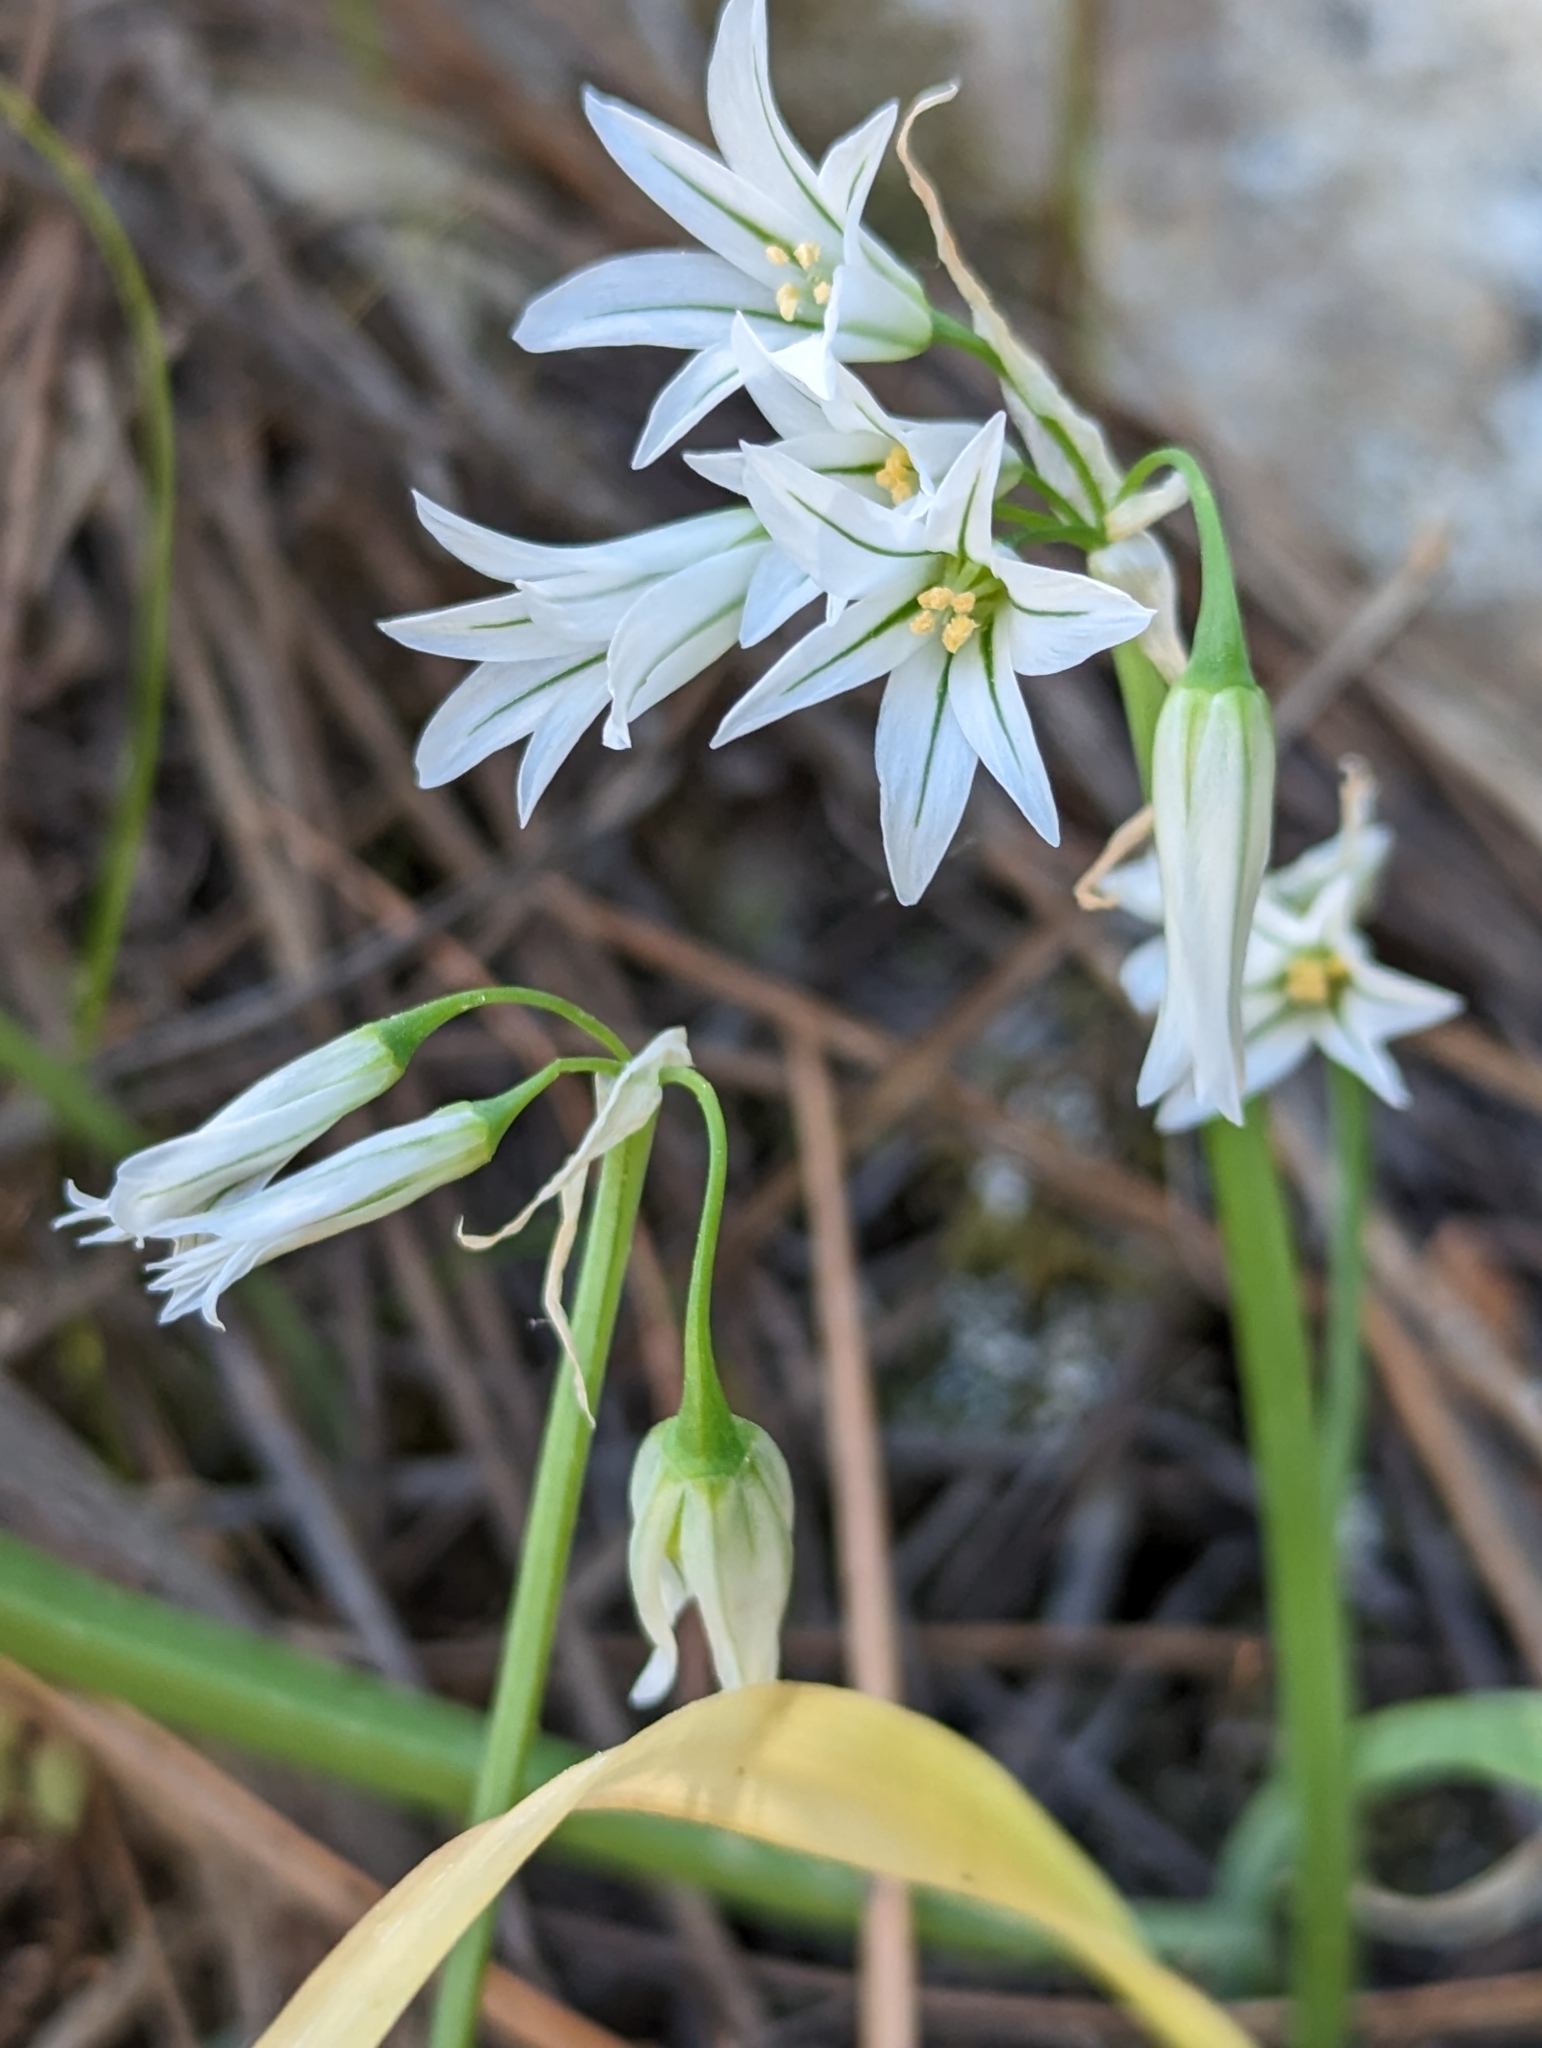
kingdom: Plantae
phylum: Tracheophyta
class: Liliopsida
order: Asparagales
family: Amaryllidaceae
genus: Allium
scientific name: Allium triquetrum
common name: Three-cornered garlic
